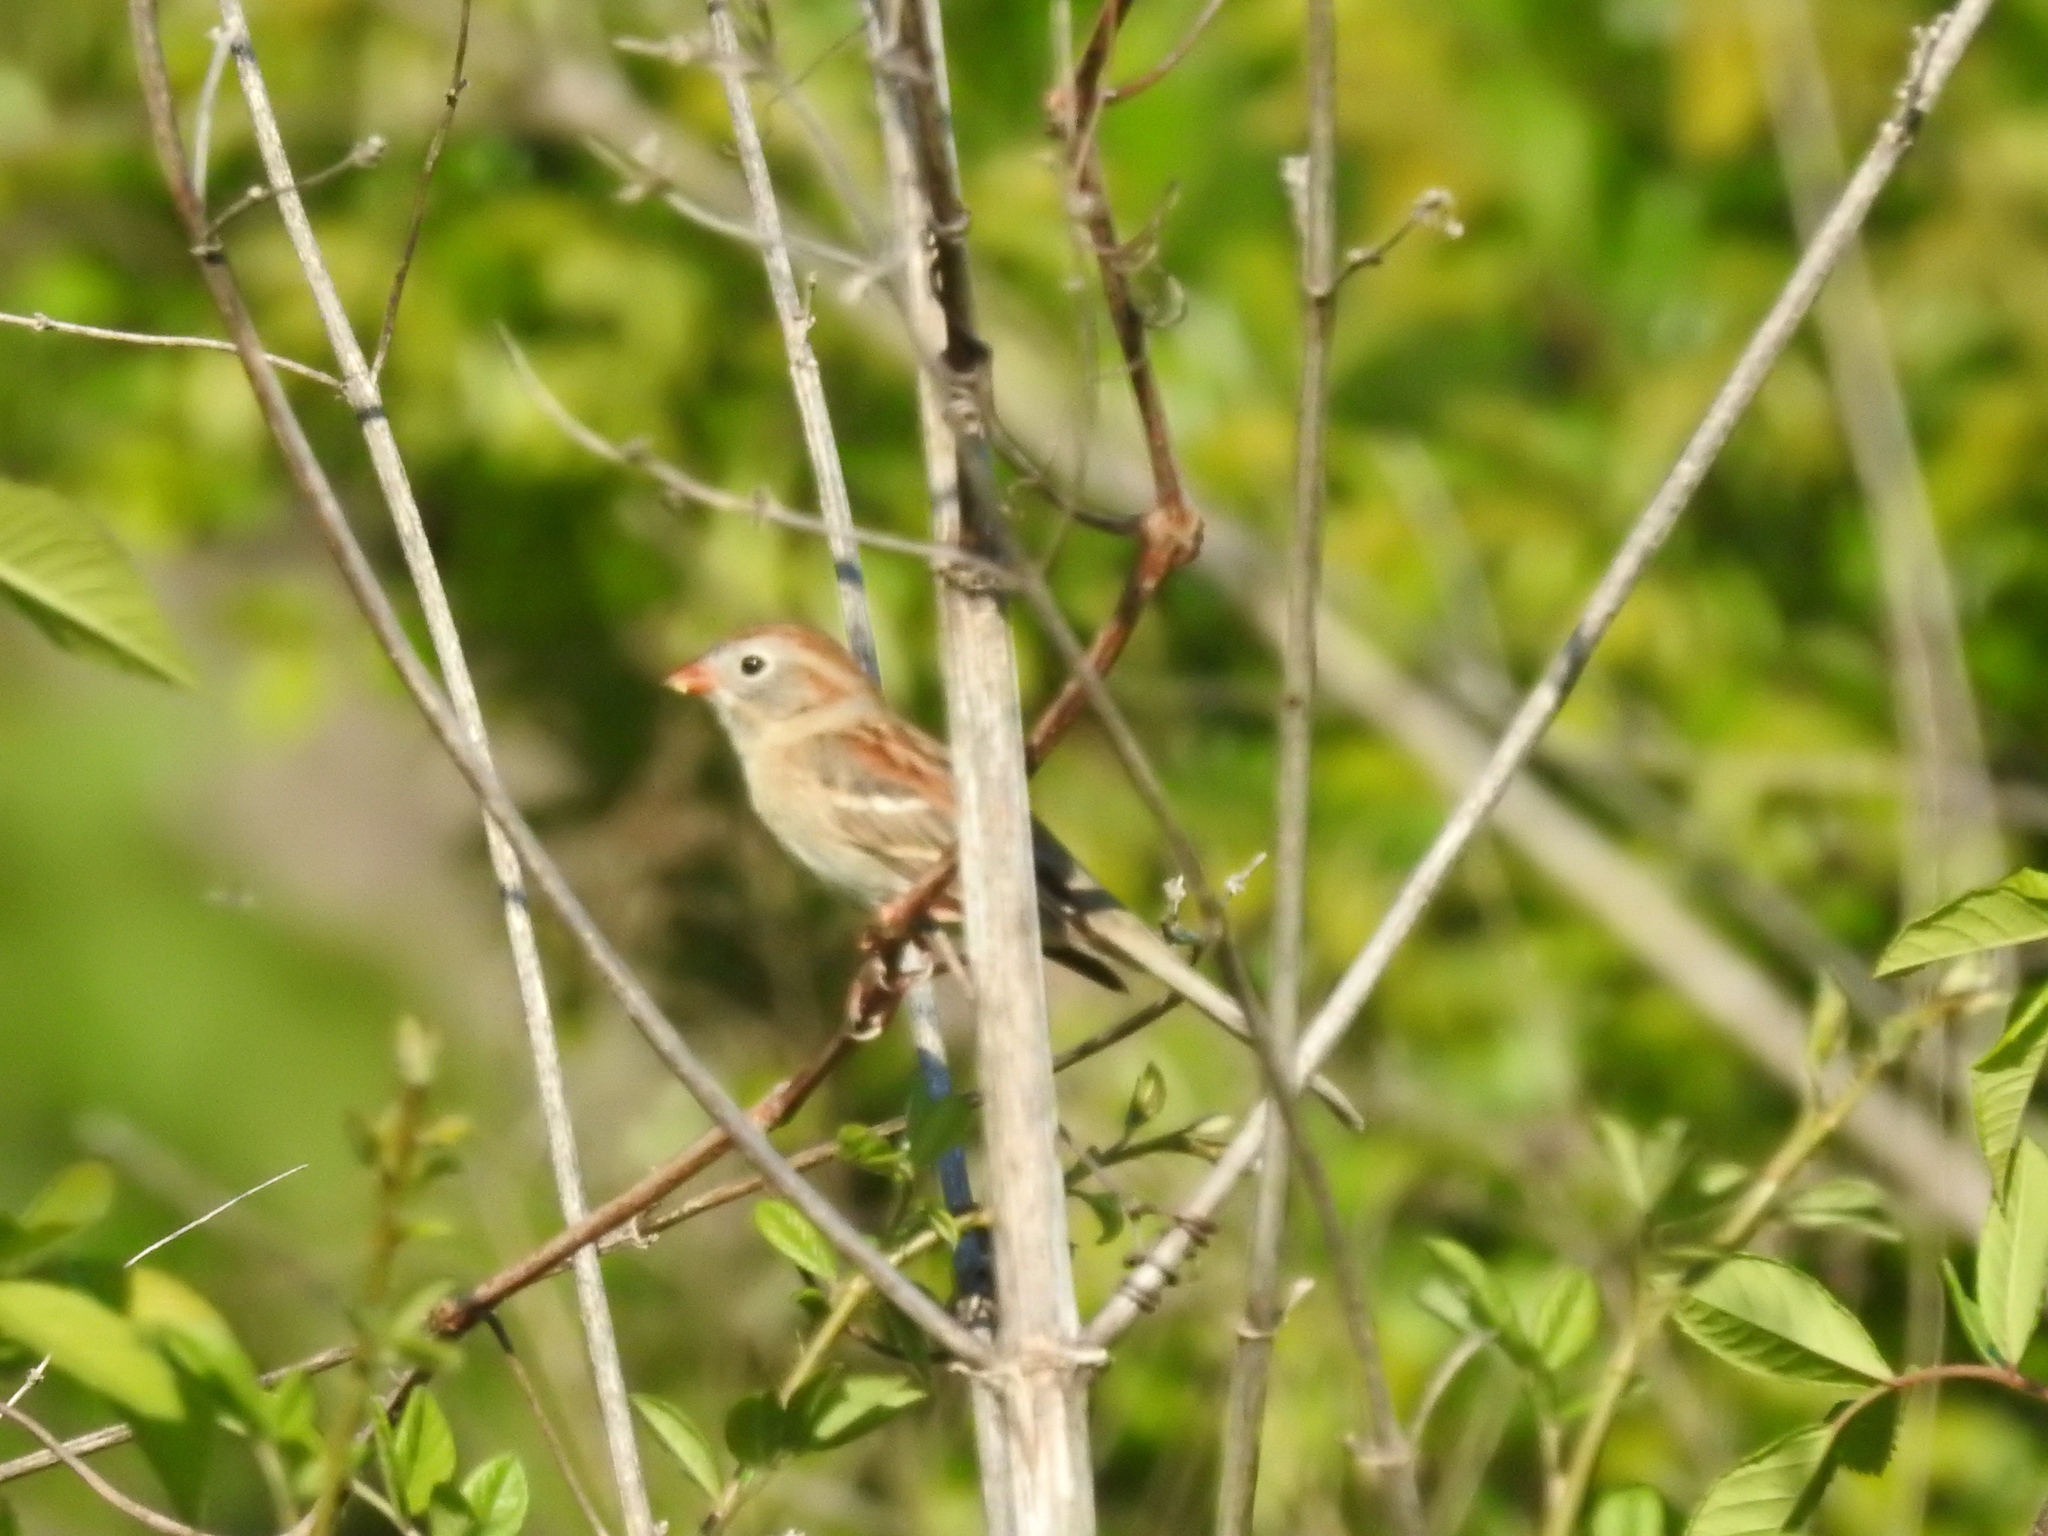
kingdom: Animalia
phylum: Chordata
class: Aves
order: Passeriformes
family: Passerellidae
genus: Spizella
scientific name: Spizella pusilla
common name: Field sparrow
